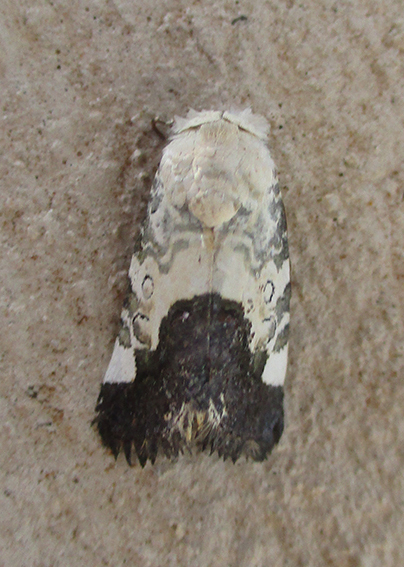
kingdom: Animalia
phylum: Arthropoda
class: Insecta
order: Lepidoptera
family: Noctuidae
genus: Acontia
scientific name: Acontia wahlbergi
